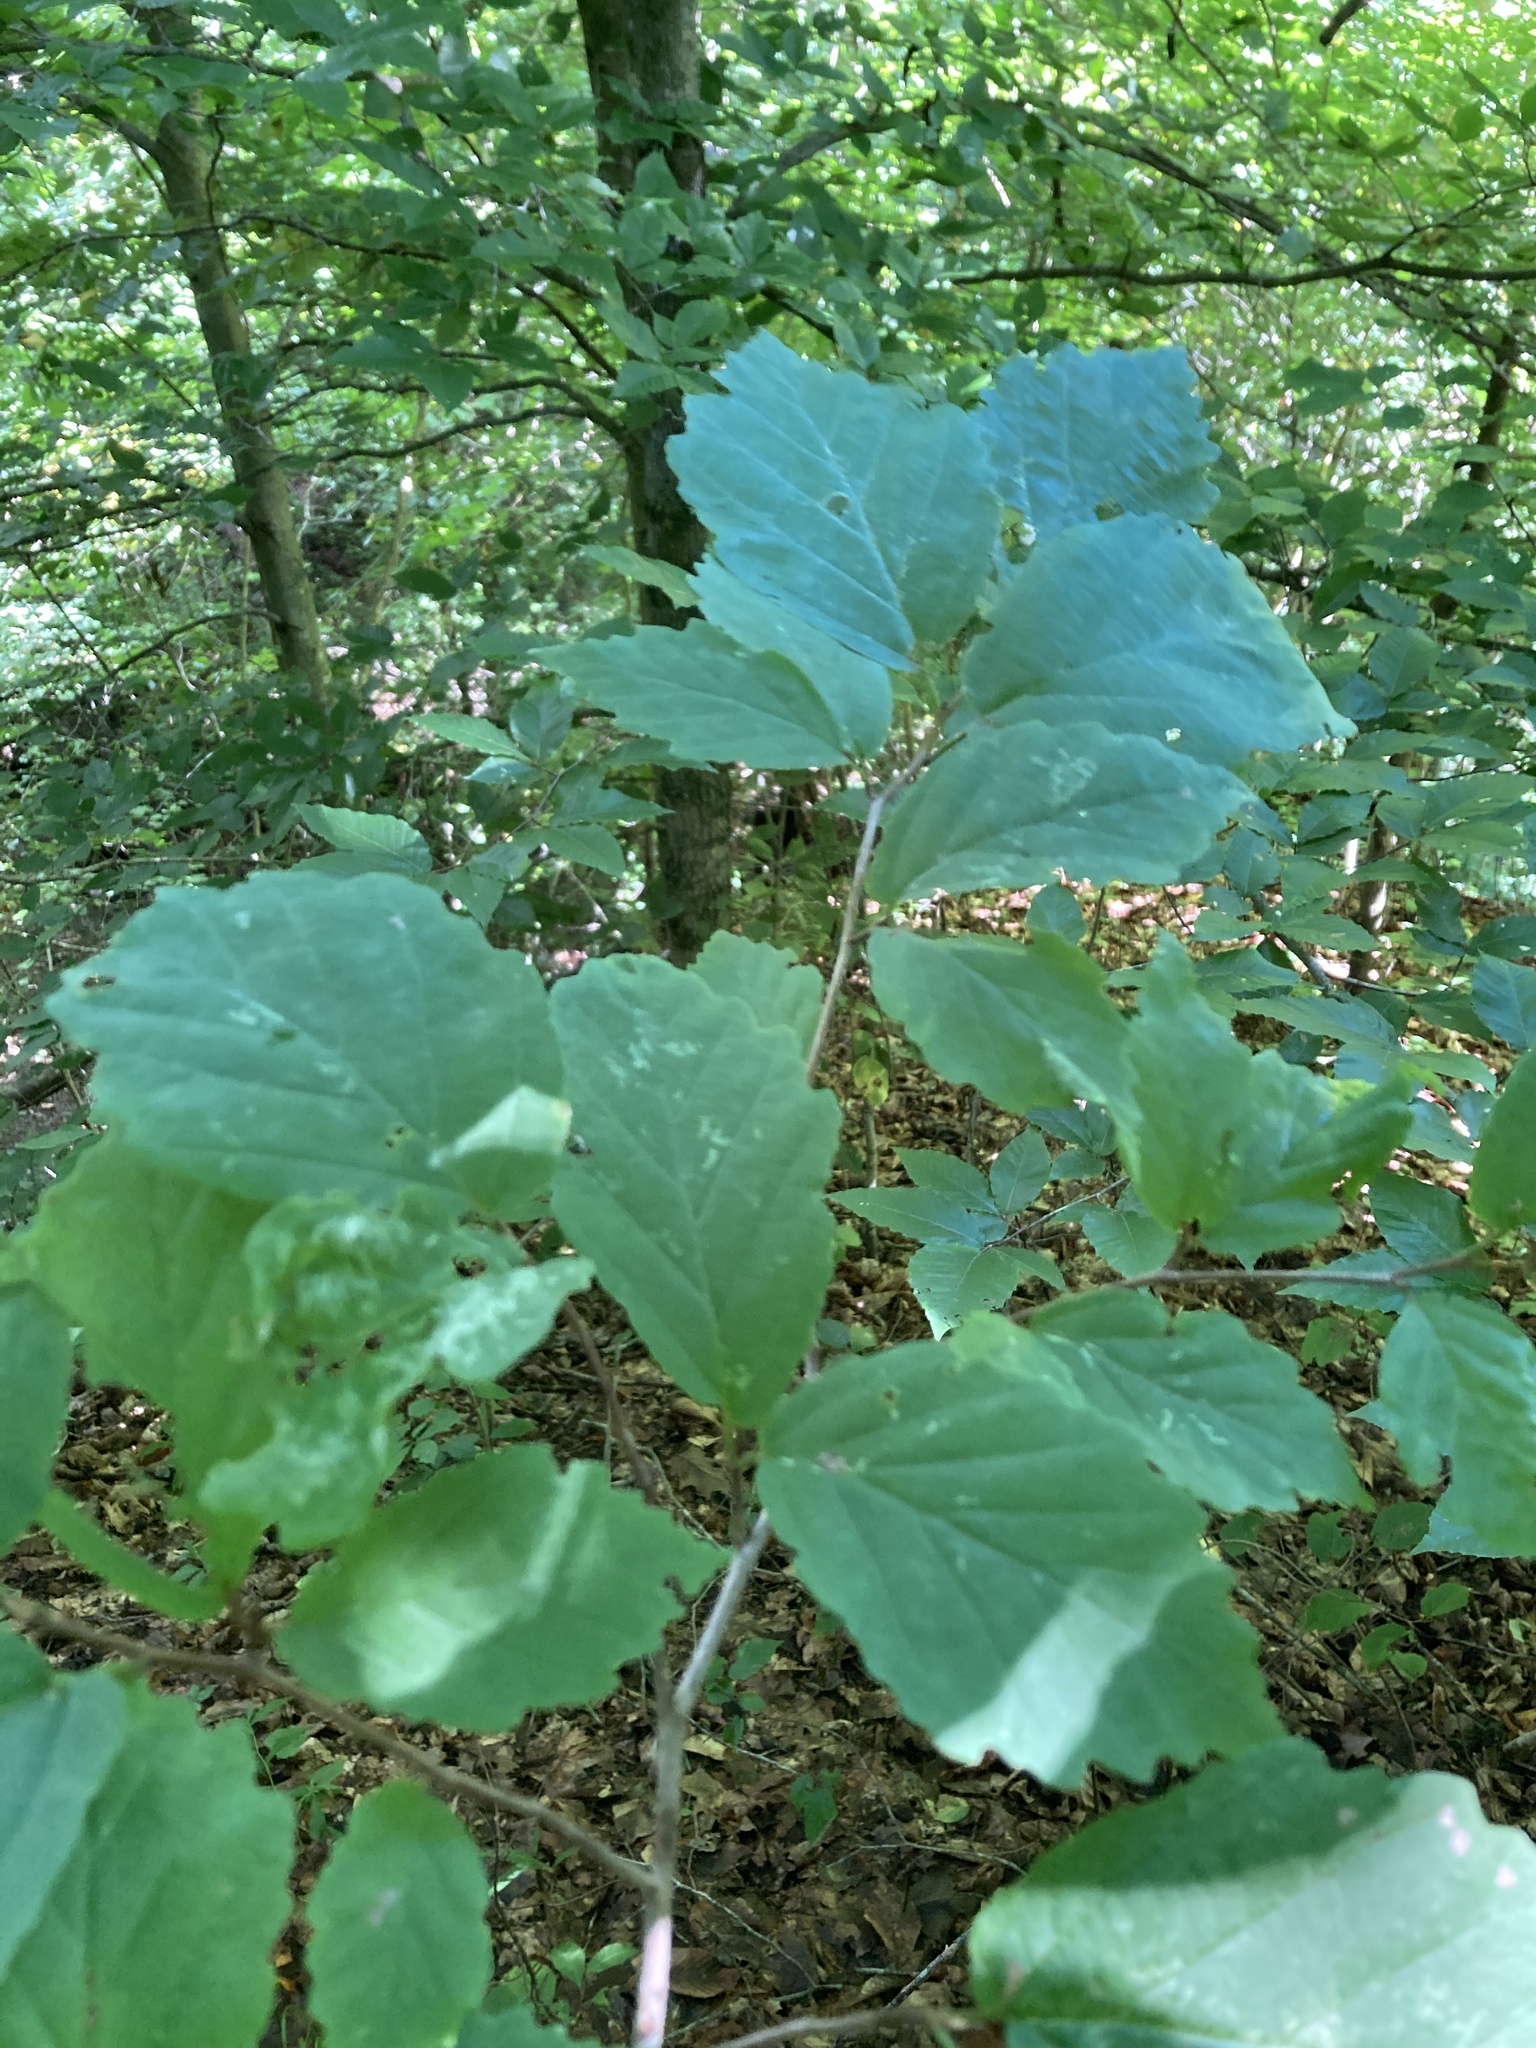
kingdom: Plantae
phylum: Tracheophyta
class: Magnoliopsida
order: Saxifragales
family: Hamamelidaceae
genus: Hamamelis
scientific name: Hamamelis virginiana
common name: Witch-hazel
